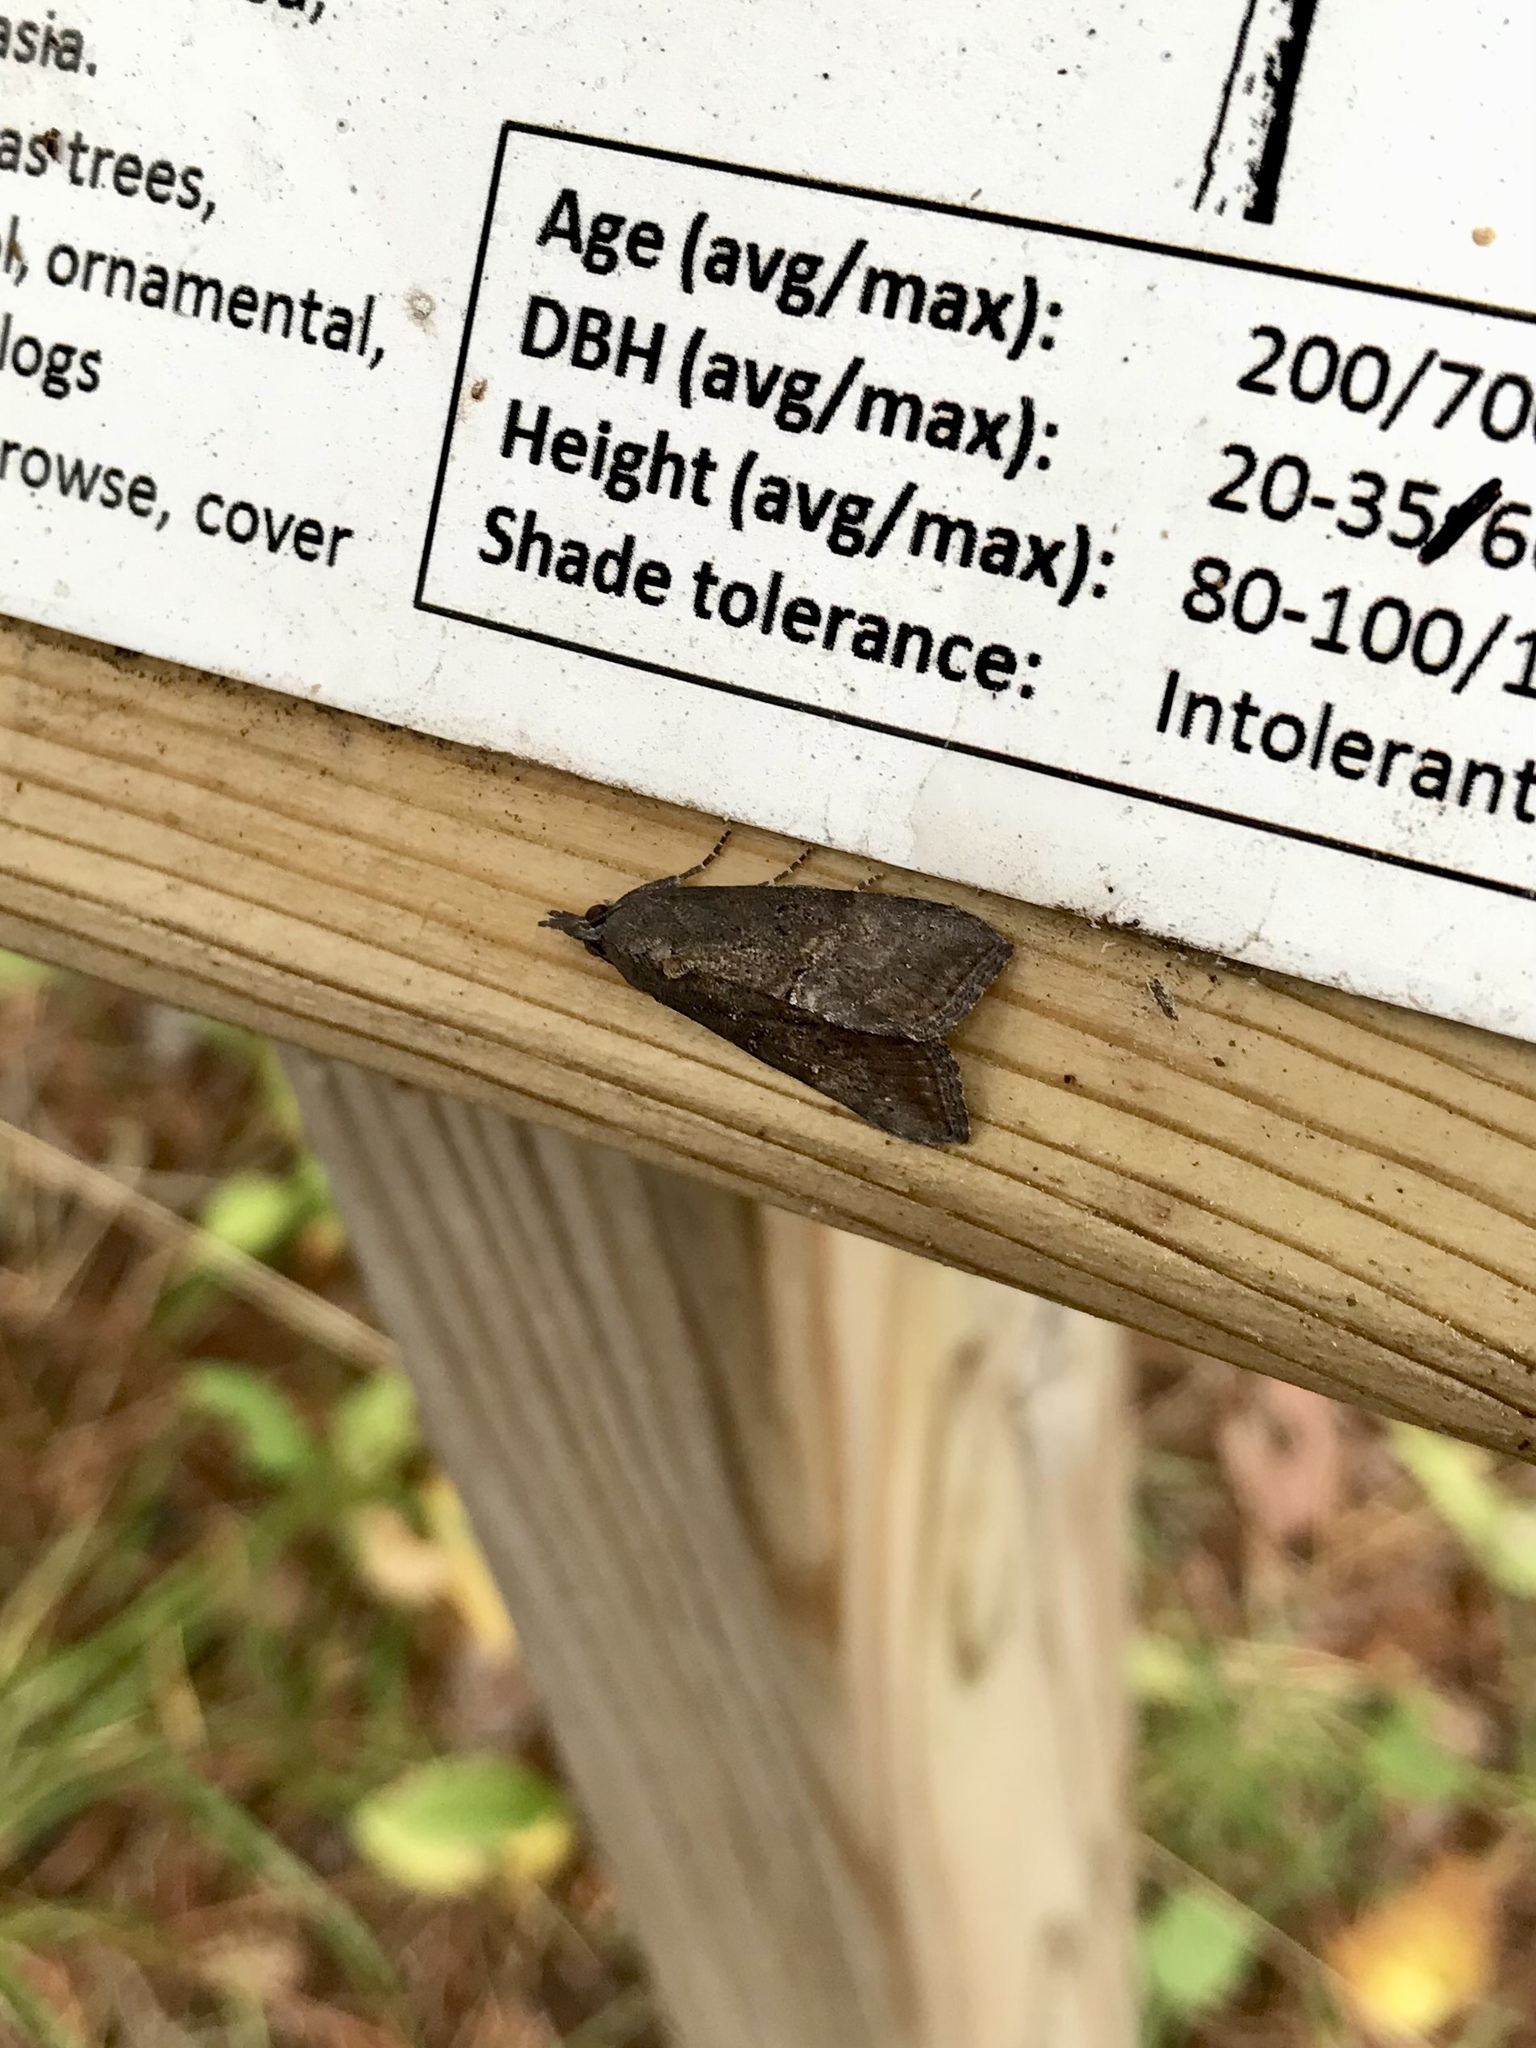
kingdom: Animalia
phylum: Arthropoda
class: Insecta
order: Lepidoptera
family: Erebidae
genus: Hypena
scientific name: Hypena scabra
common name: Green cloverworm
